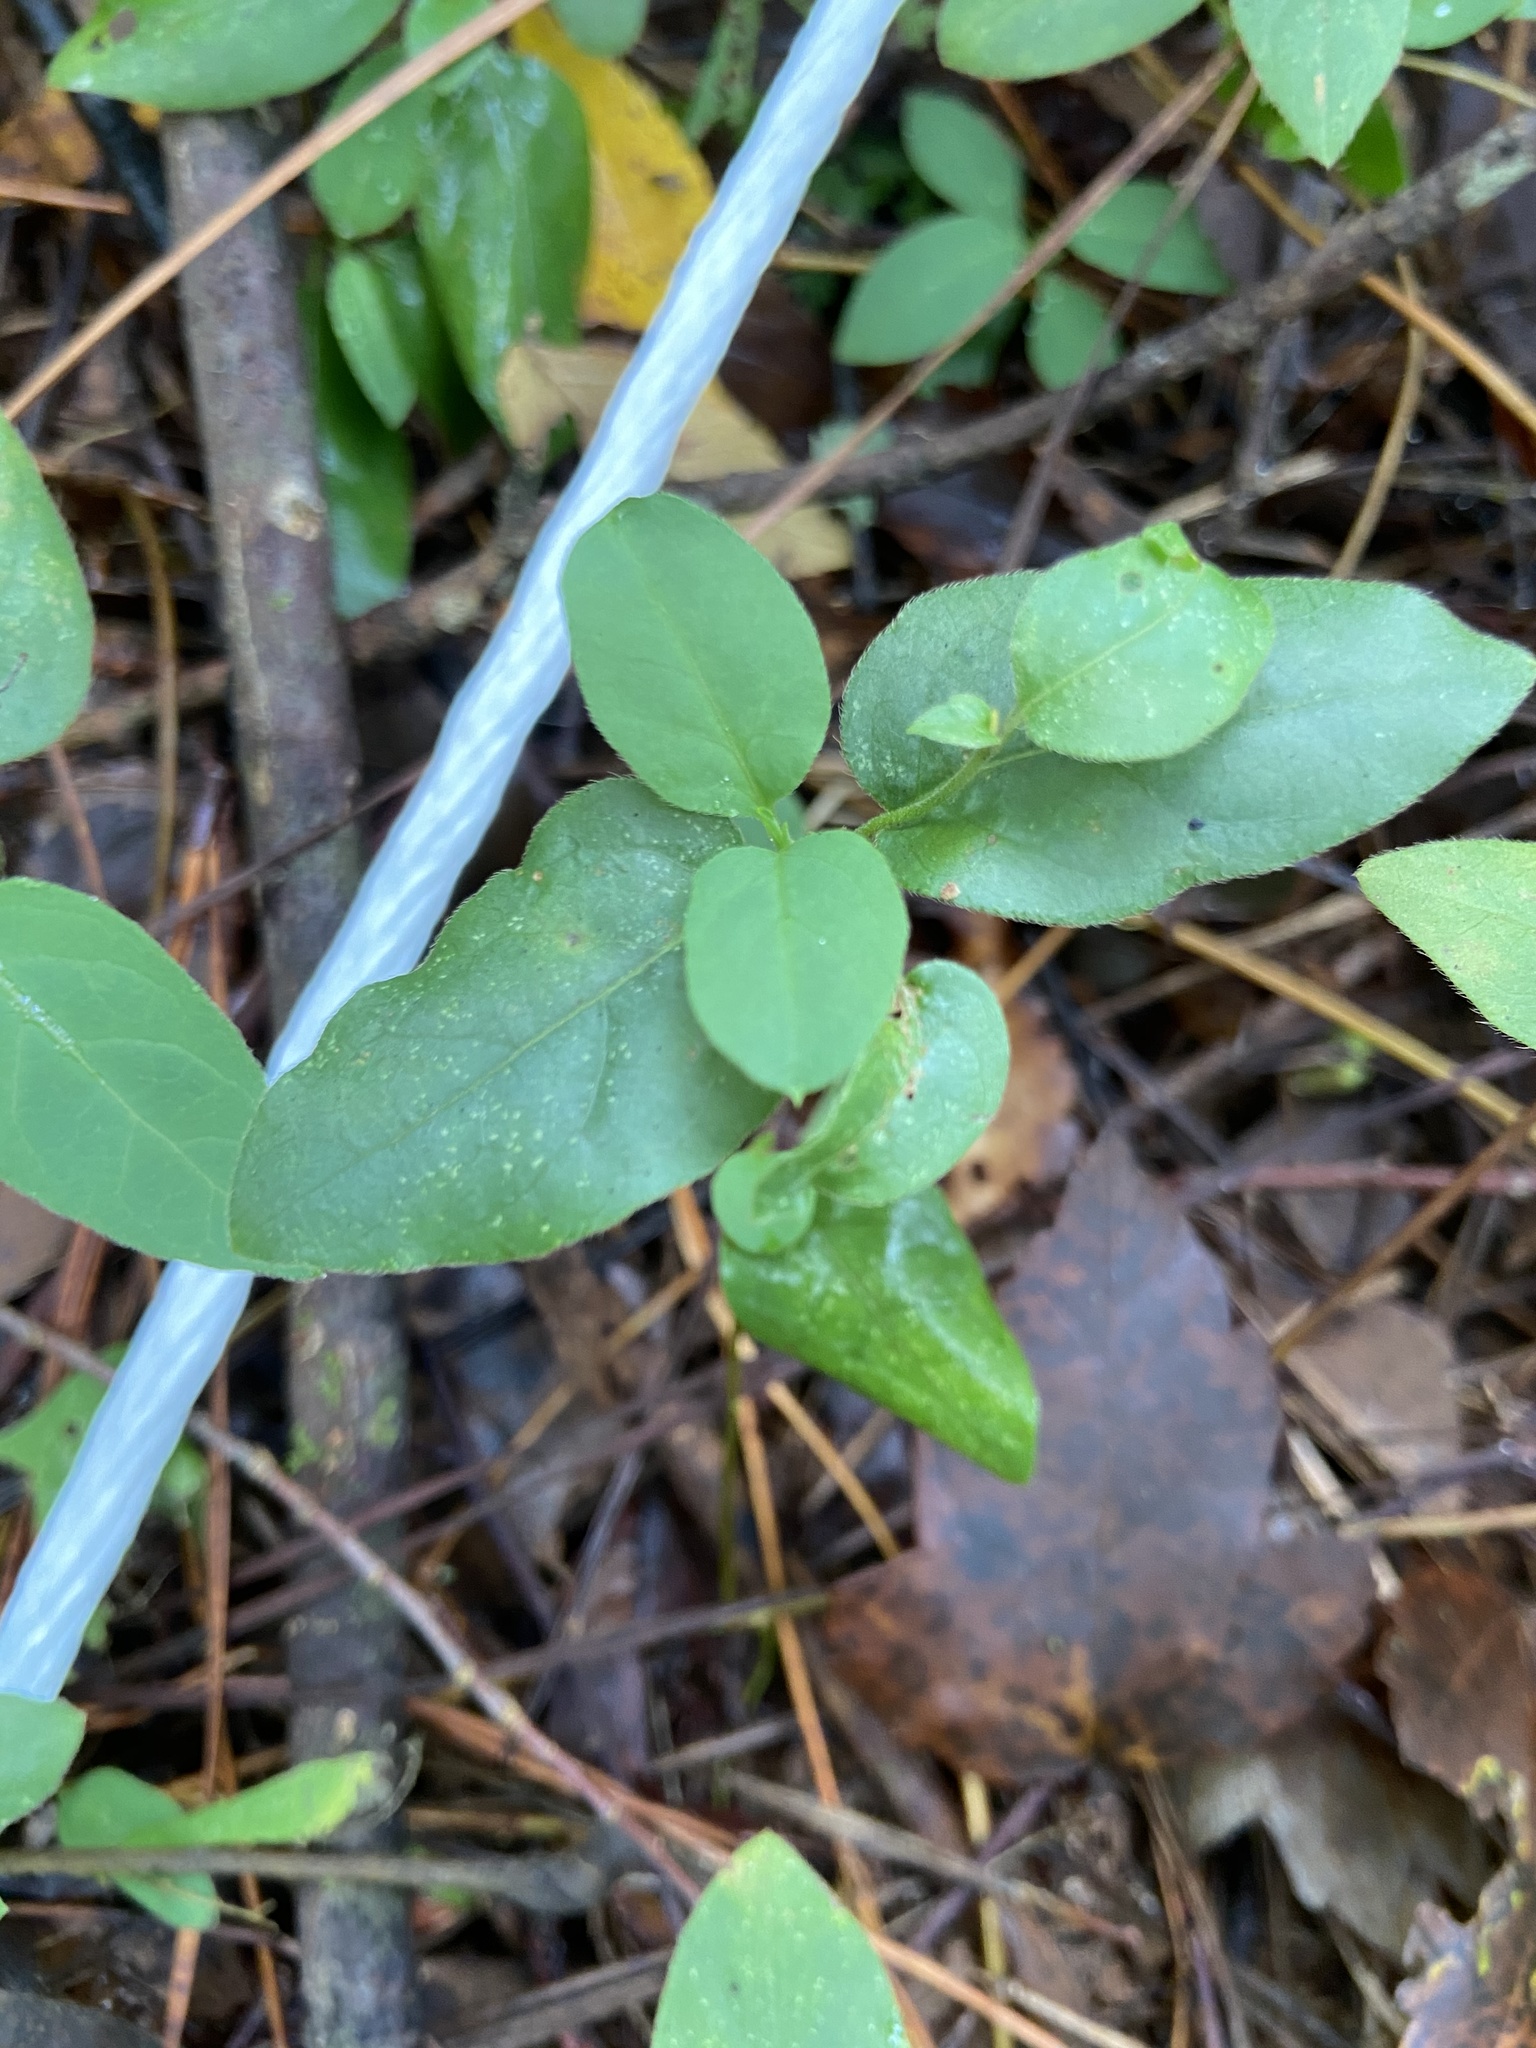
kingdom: Plantae
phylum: Tracheophyta
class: Magnoliopsida
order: Dipsacales
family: Caprifoliaceae
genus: Lonicera
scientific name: Lonicera japonica
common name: Japanese honeysuckle
